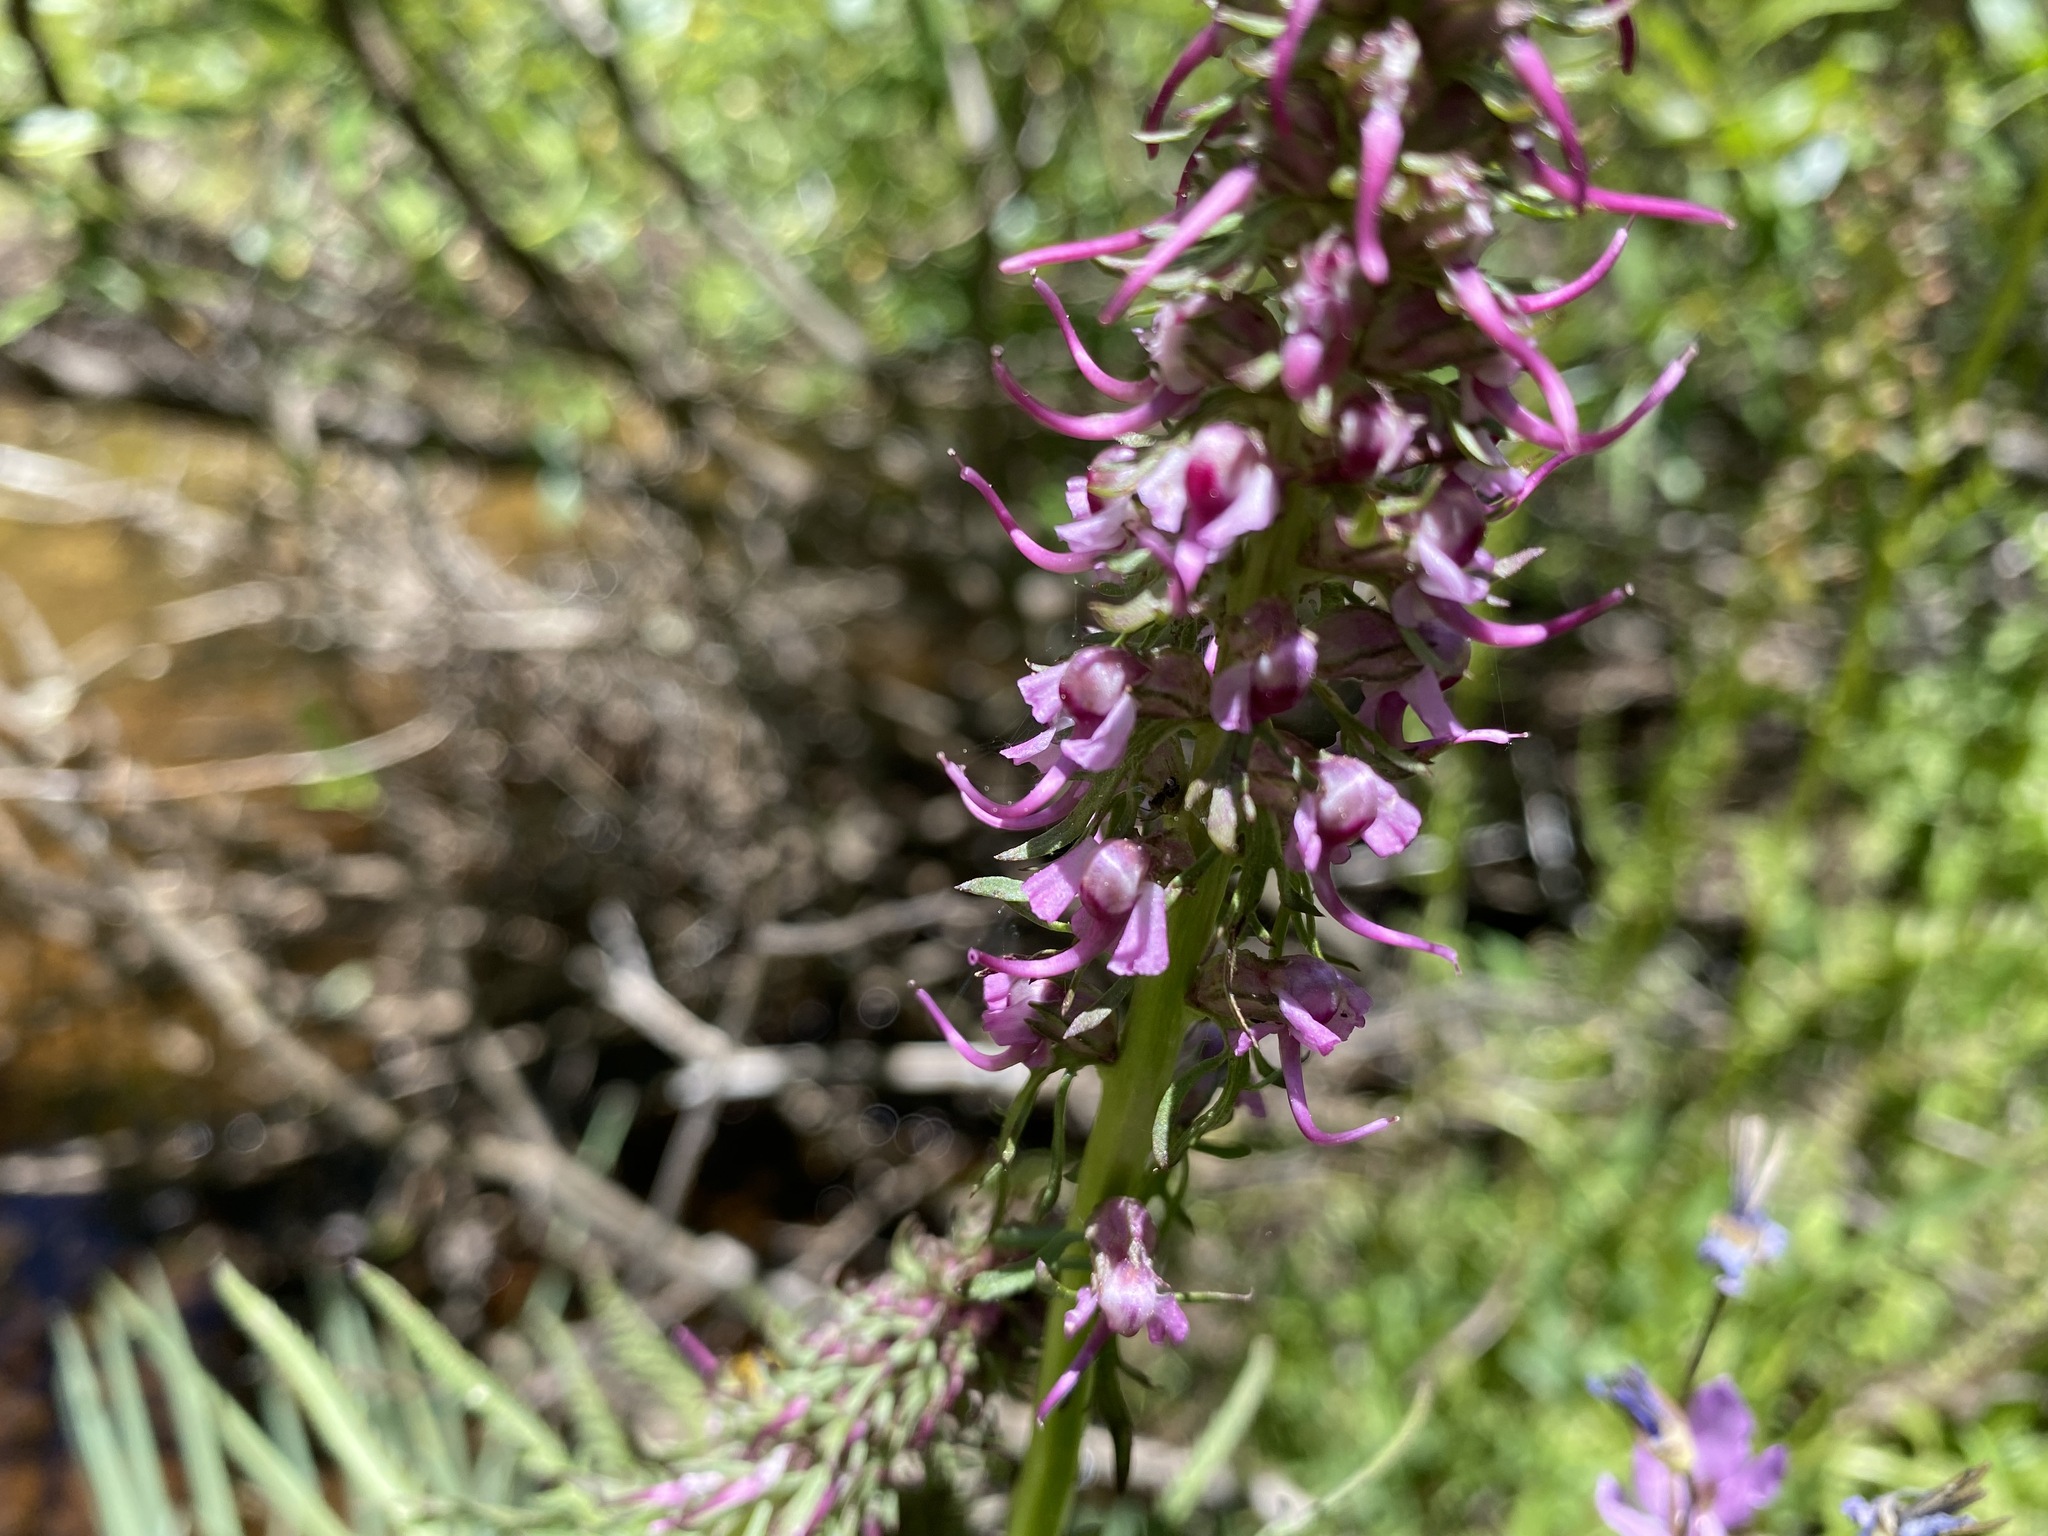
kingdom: Plantae
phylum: Tracheophyta
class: Magnoliopsida
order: Lamiales
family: Orobanchaceae
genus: Pedicularis
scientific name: Pedicularis groenlandica
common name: Elephant's-head
